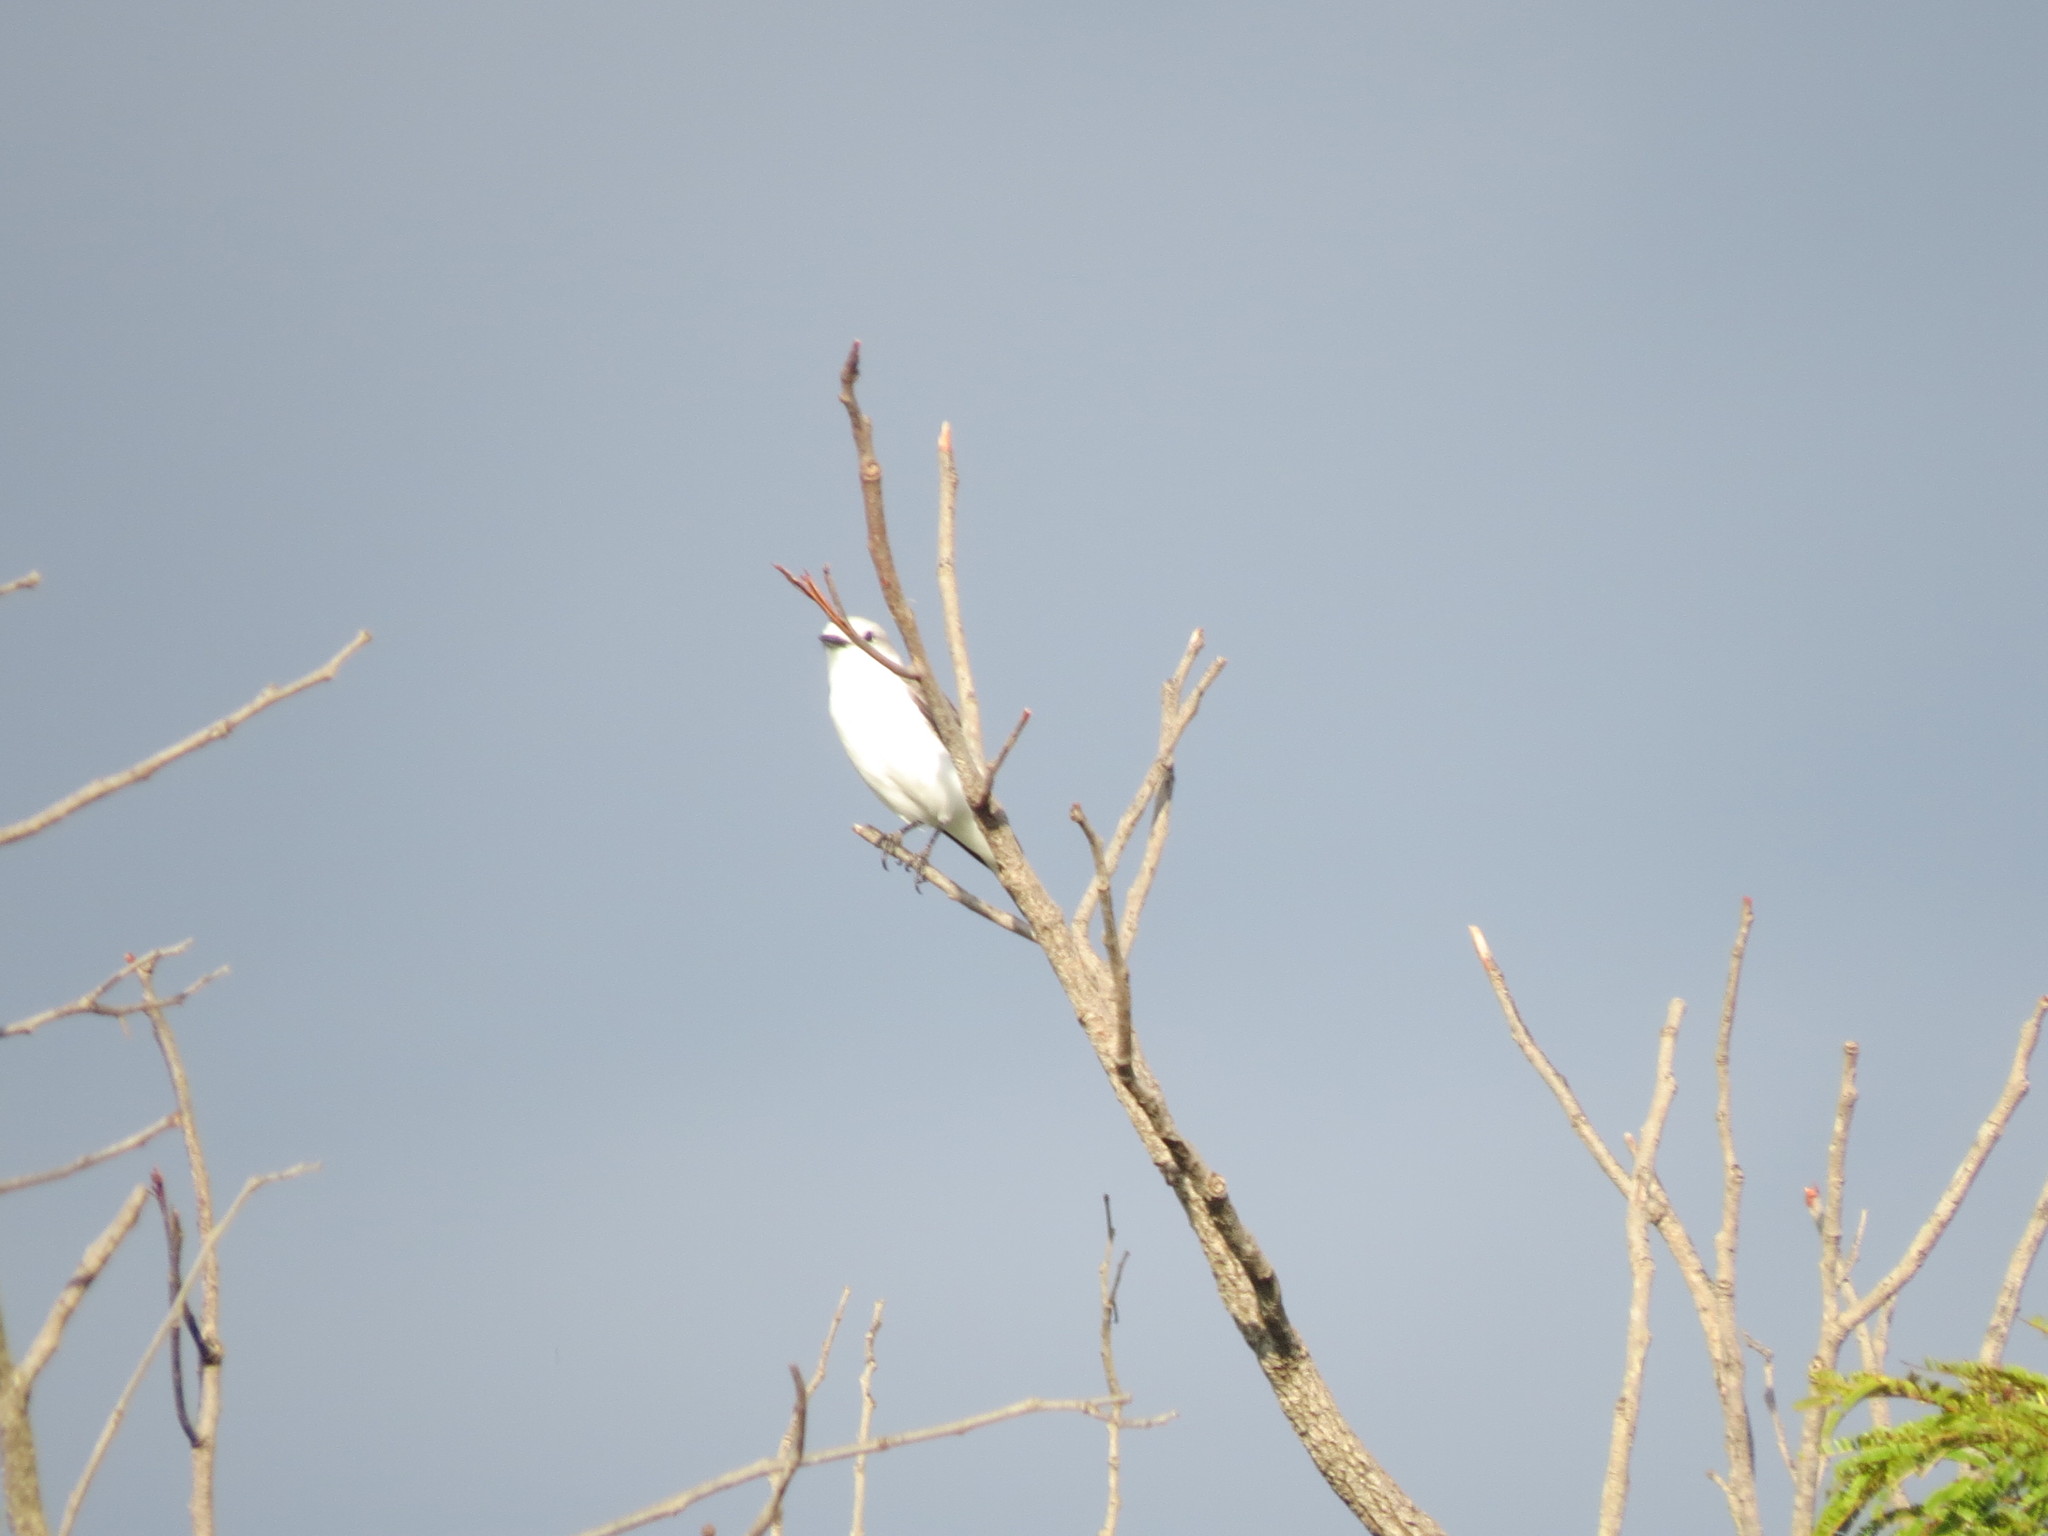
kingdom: Animalia
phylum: Chordata
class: Aves
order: Passeriformes
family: Tyrannidae
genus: Xolmis
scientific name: Xolmis irupero
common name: White monjita
